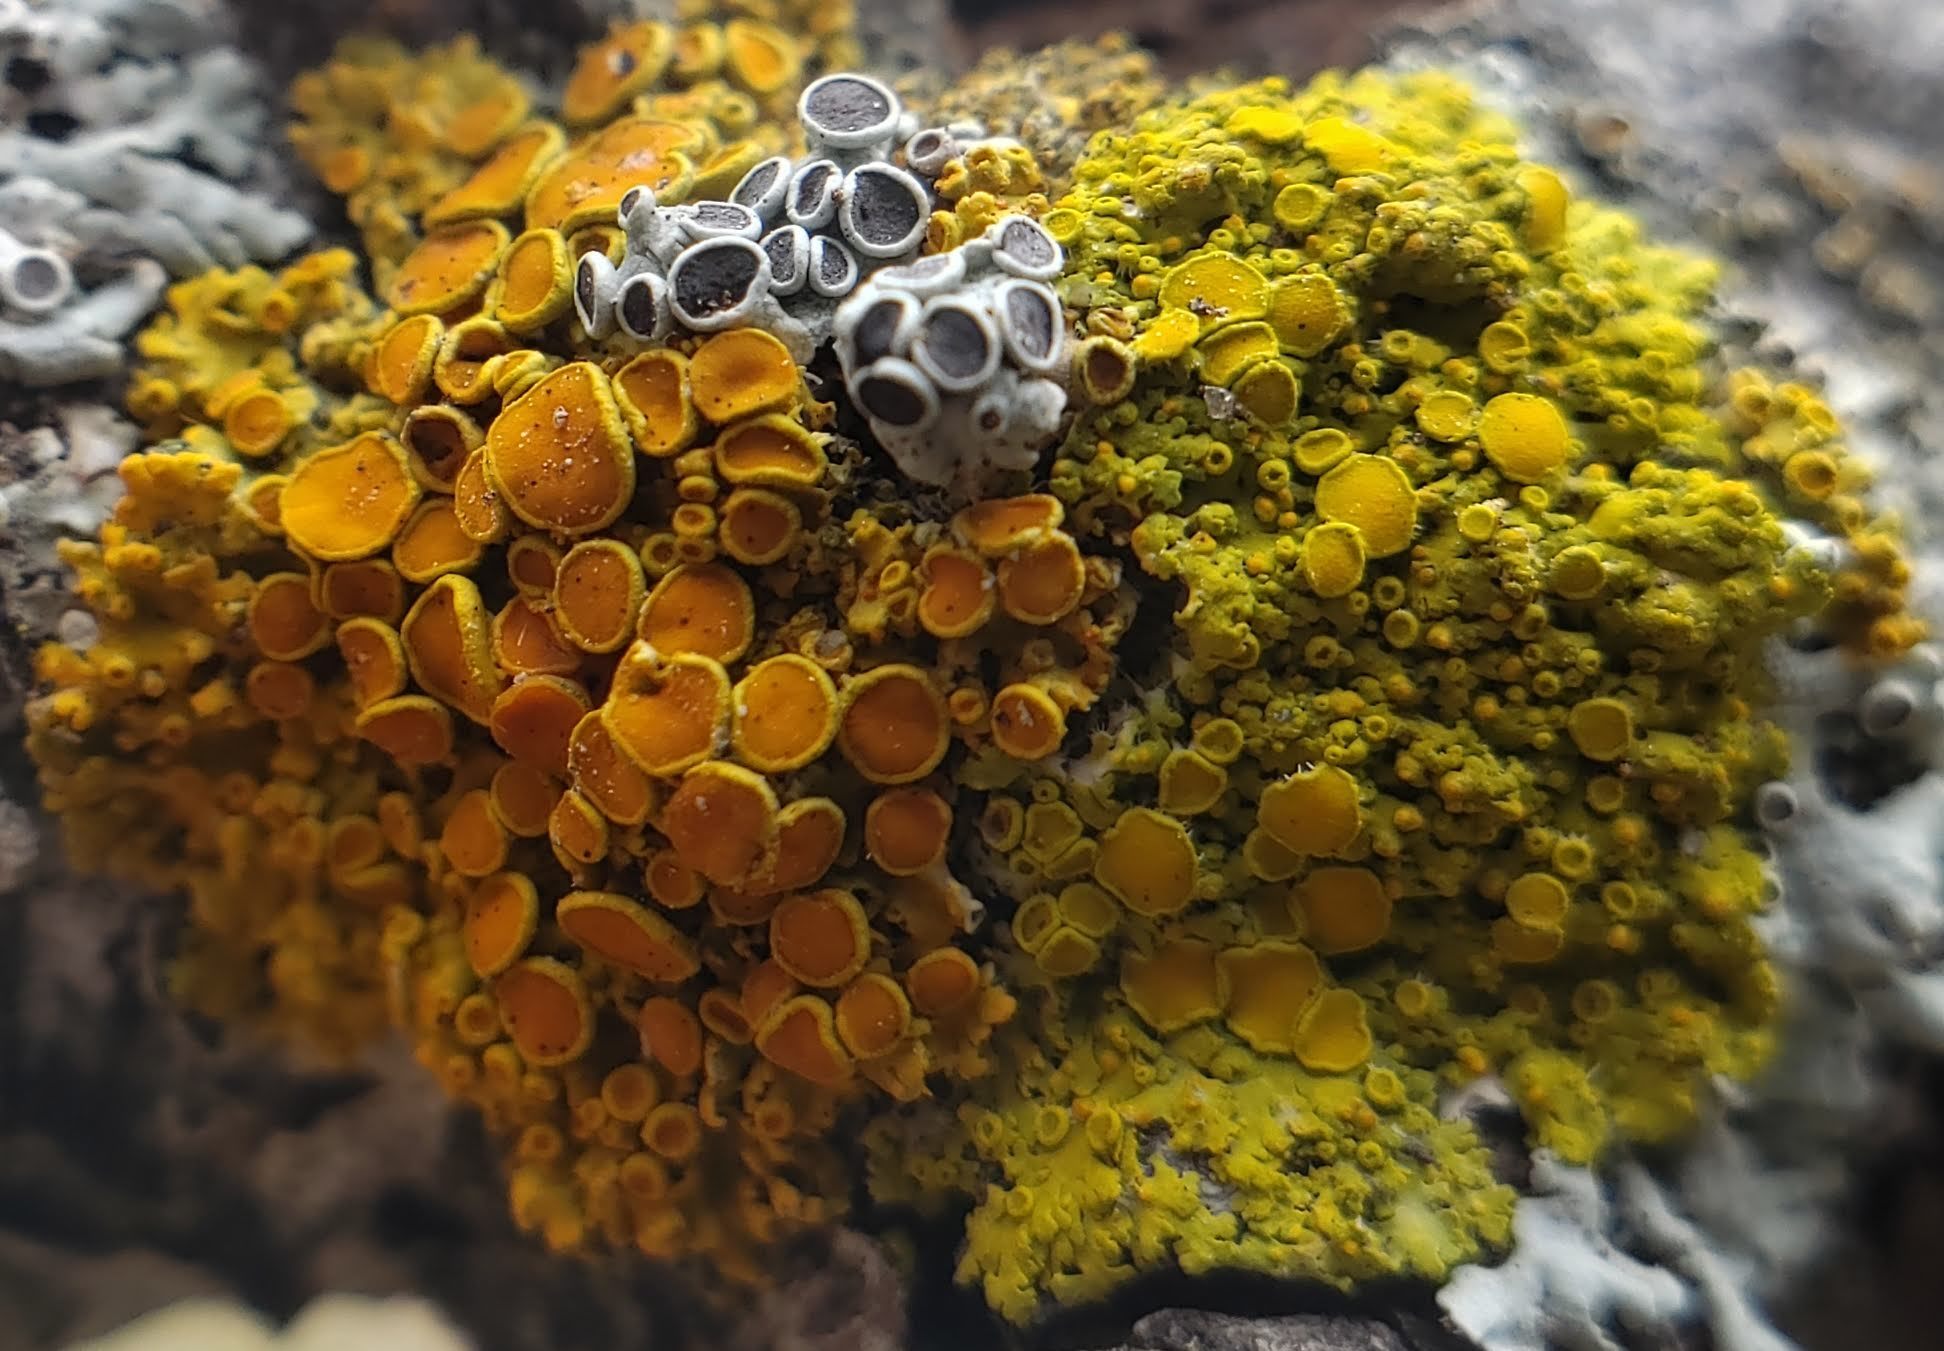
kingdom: Fungi
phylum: Ascomycota
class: Lecanoromycetes
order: Teloschistales
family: Teloschistaceae
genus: Gallowayella
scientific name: Gallowayella hasseana
